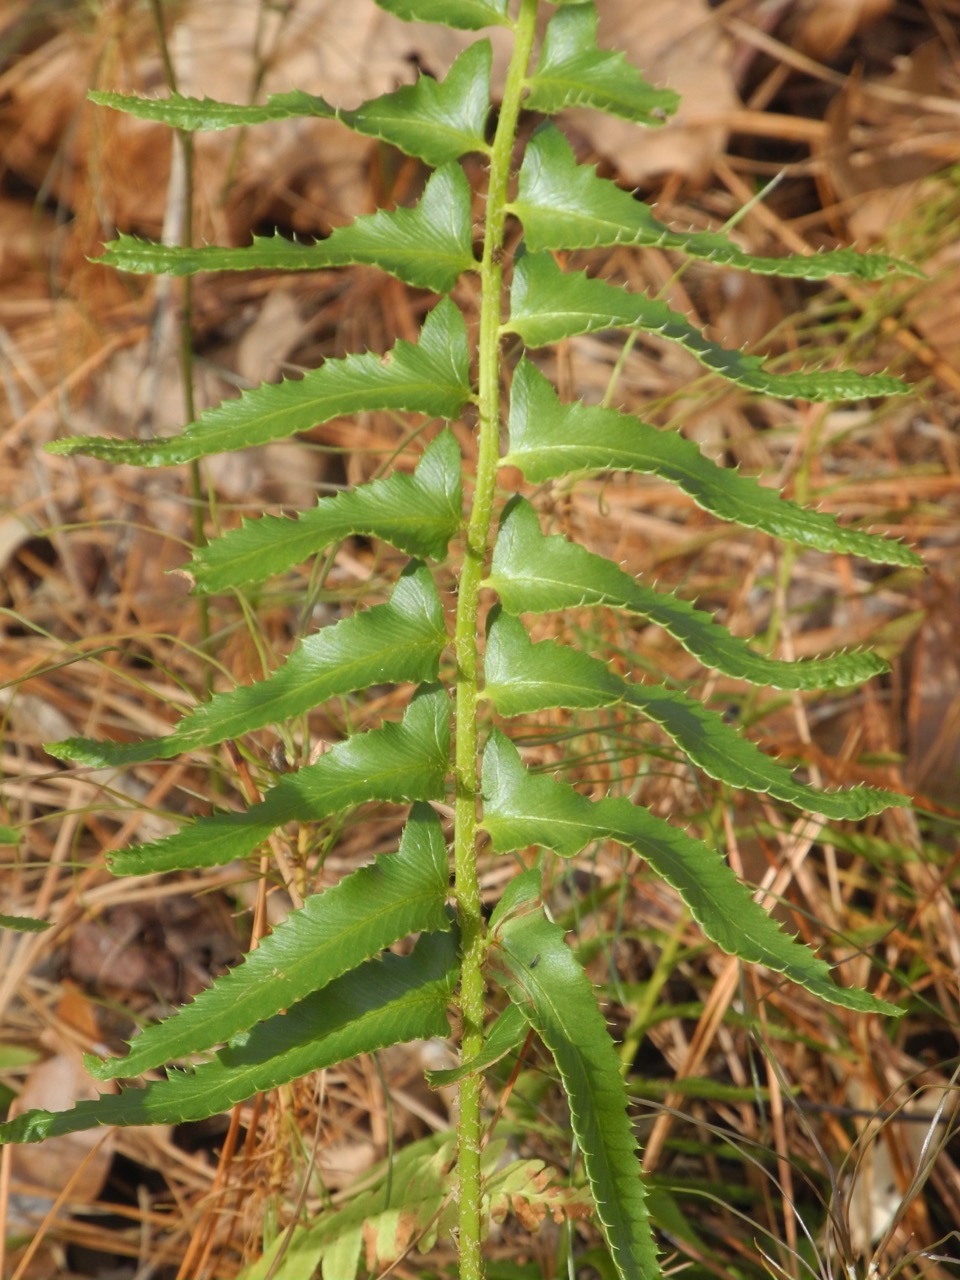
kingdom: Plantae
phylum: Tracheophyta
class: Polypodiopsida
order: Polypodiales
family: Dryopteridaceae
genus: Polystichum
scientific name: Polystichum acrostichoides
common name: Christmas fern
